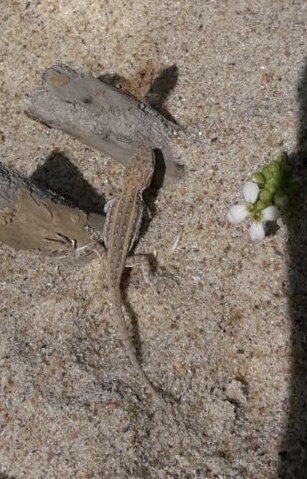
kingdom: Animalia
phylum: Chordata
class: Squamata
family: Liolaemidae
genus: Liolaemus
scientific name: Liolaemus wiegmannii
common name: Wiegmann's tree iguana
